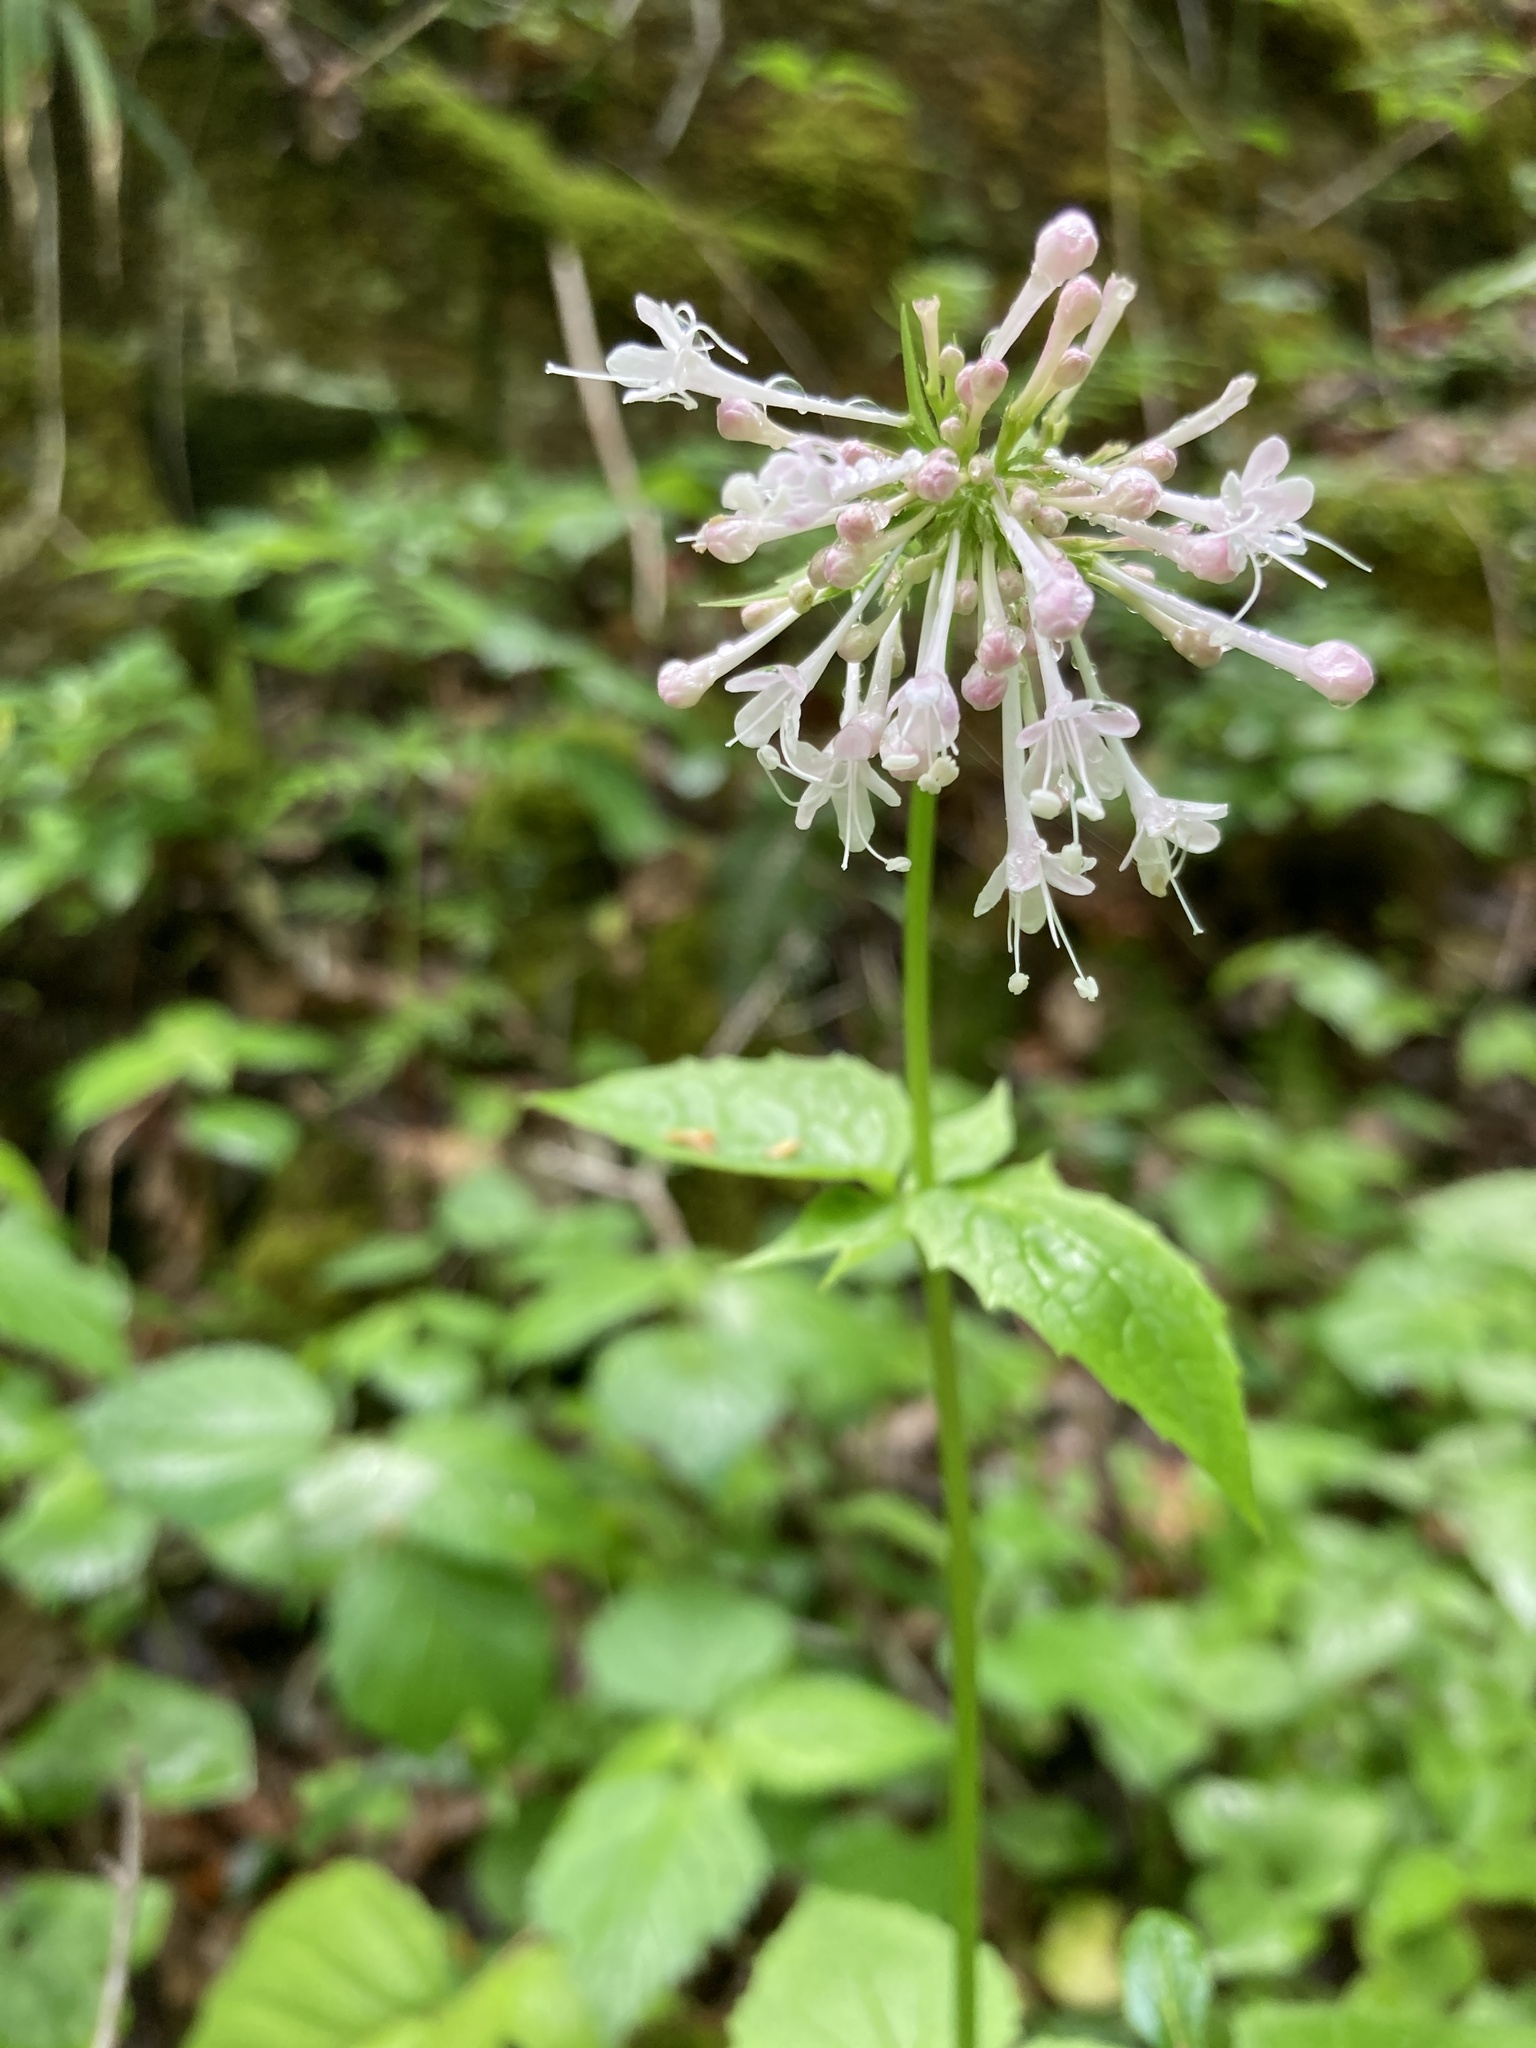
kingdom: Plantae
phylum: Tracheophyta
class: Magnoliopsida
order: Dipsacales
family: Caprifoliaceae
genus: Valeriana
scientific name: Valeriana pauciflora
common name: Long-tube valeriana
